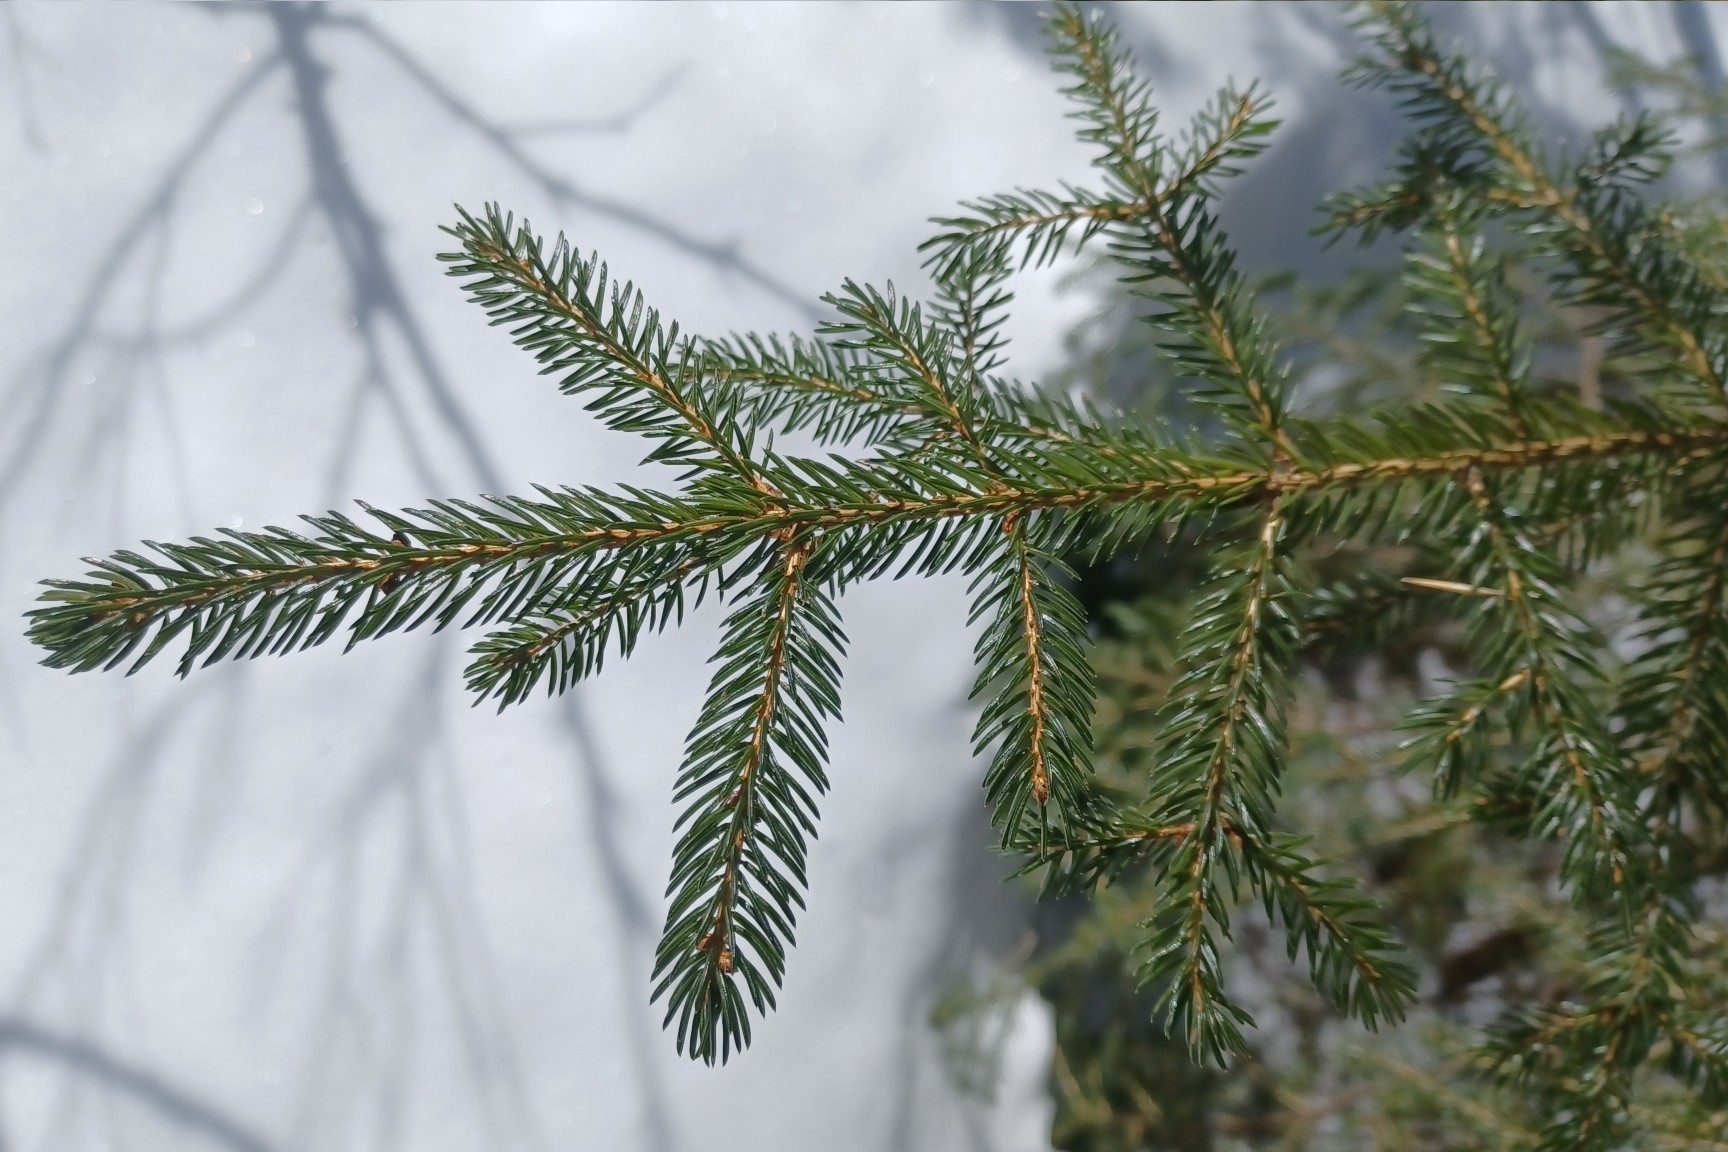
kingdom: Plantae
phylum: Tracheophyta
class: Pinopsida
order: Pinales
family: Pinaceae
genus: Picea
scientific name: Picea rubens
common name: Red spruce
